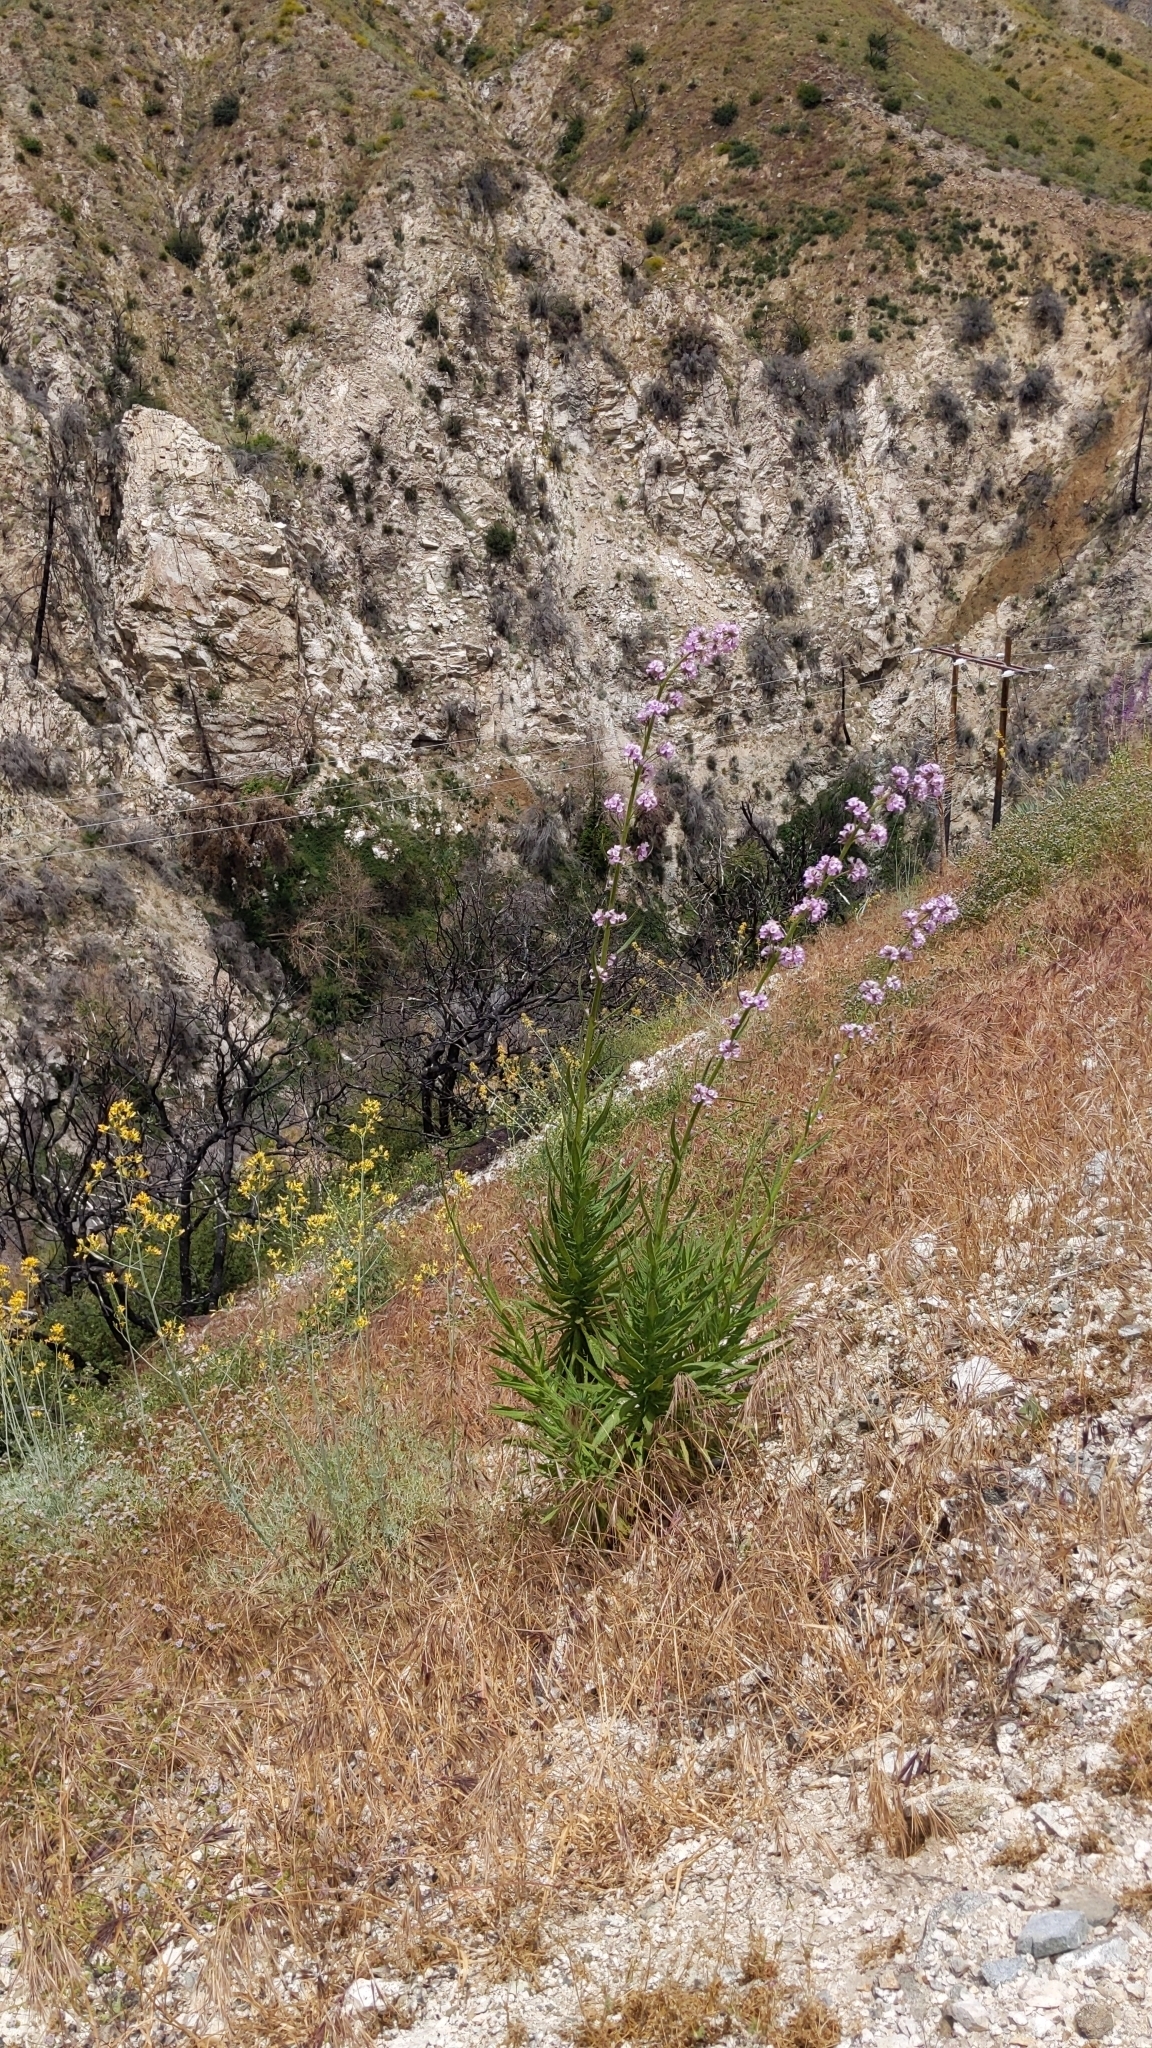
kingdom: Plantae
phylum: Tracheophyta
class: Magnoliopsida
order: Boraginales
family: Namaceae
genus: Turricula
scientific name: Turricula parryi
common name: Poodle-dog-bush
